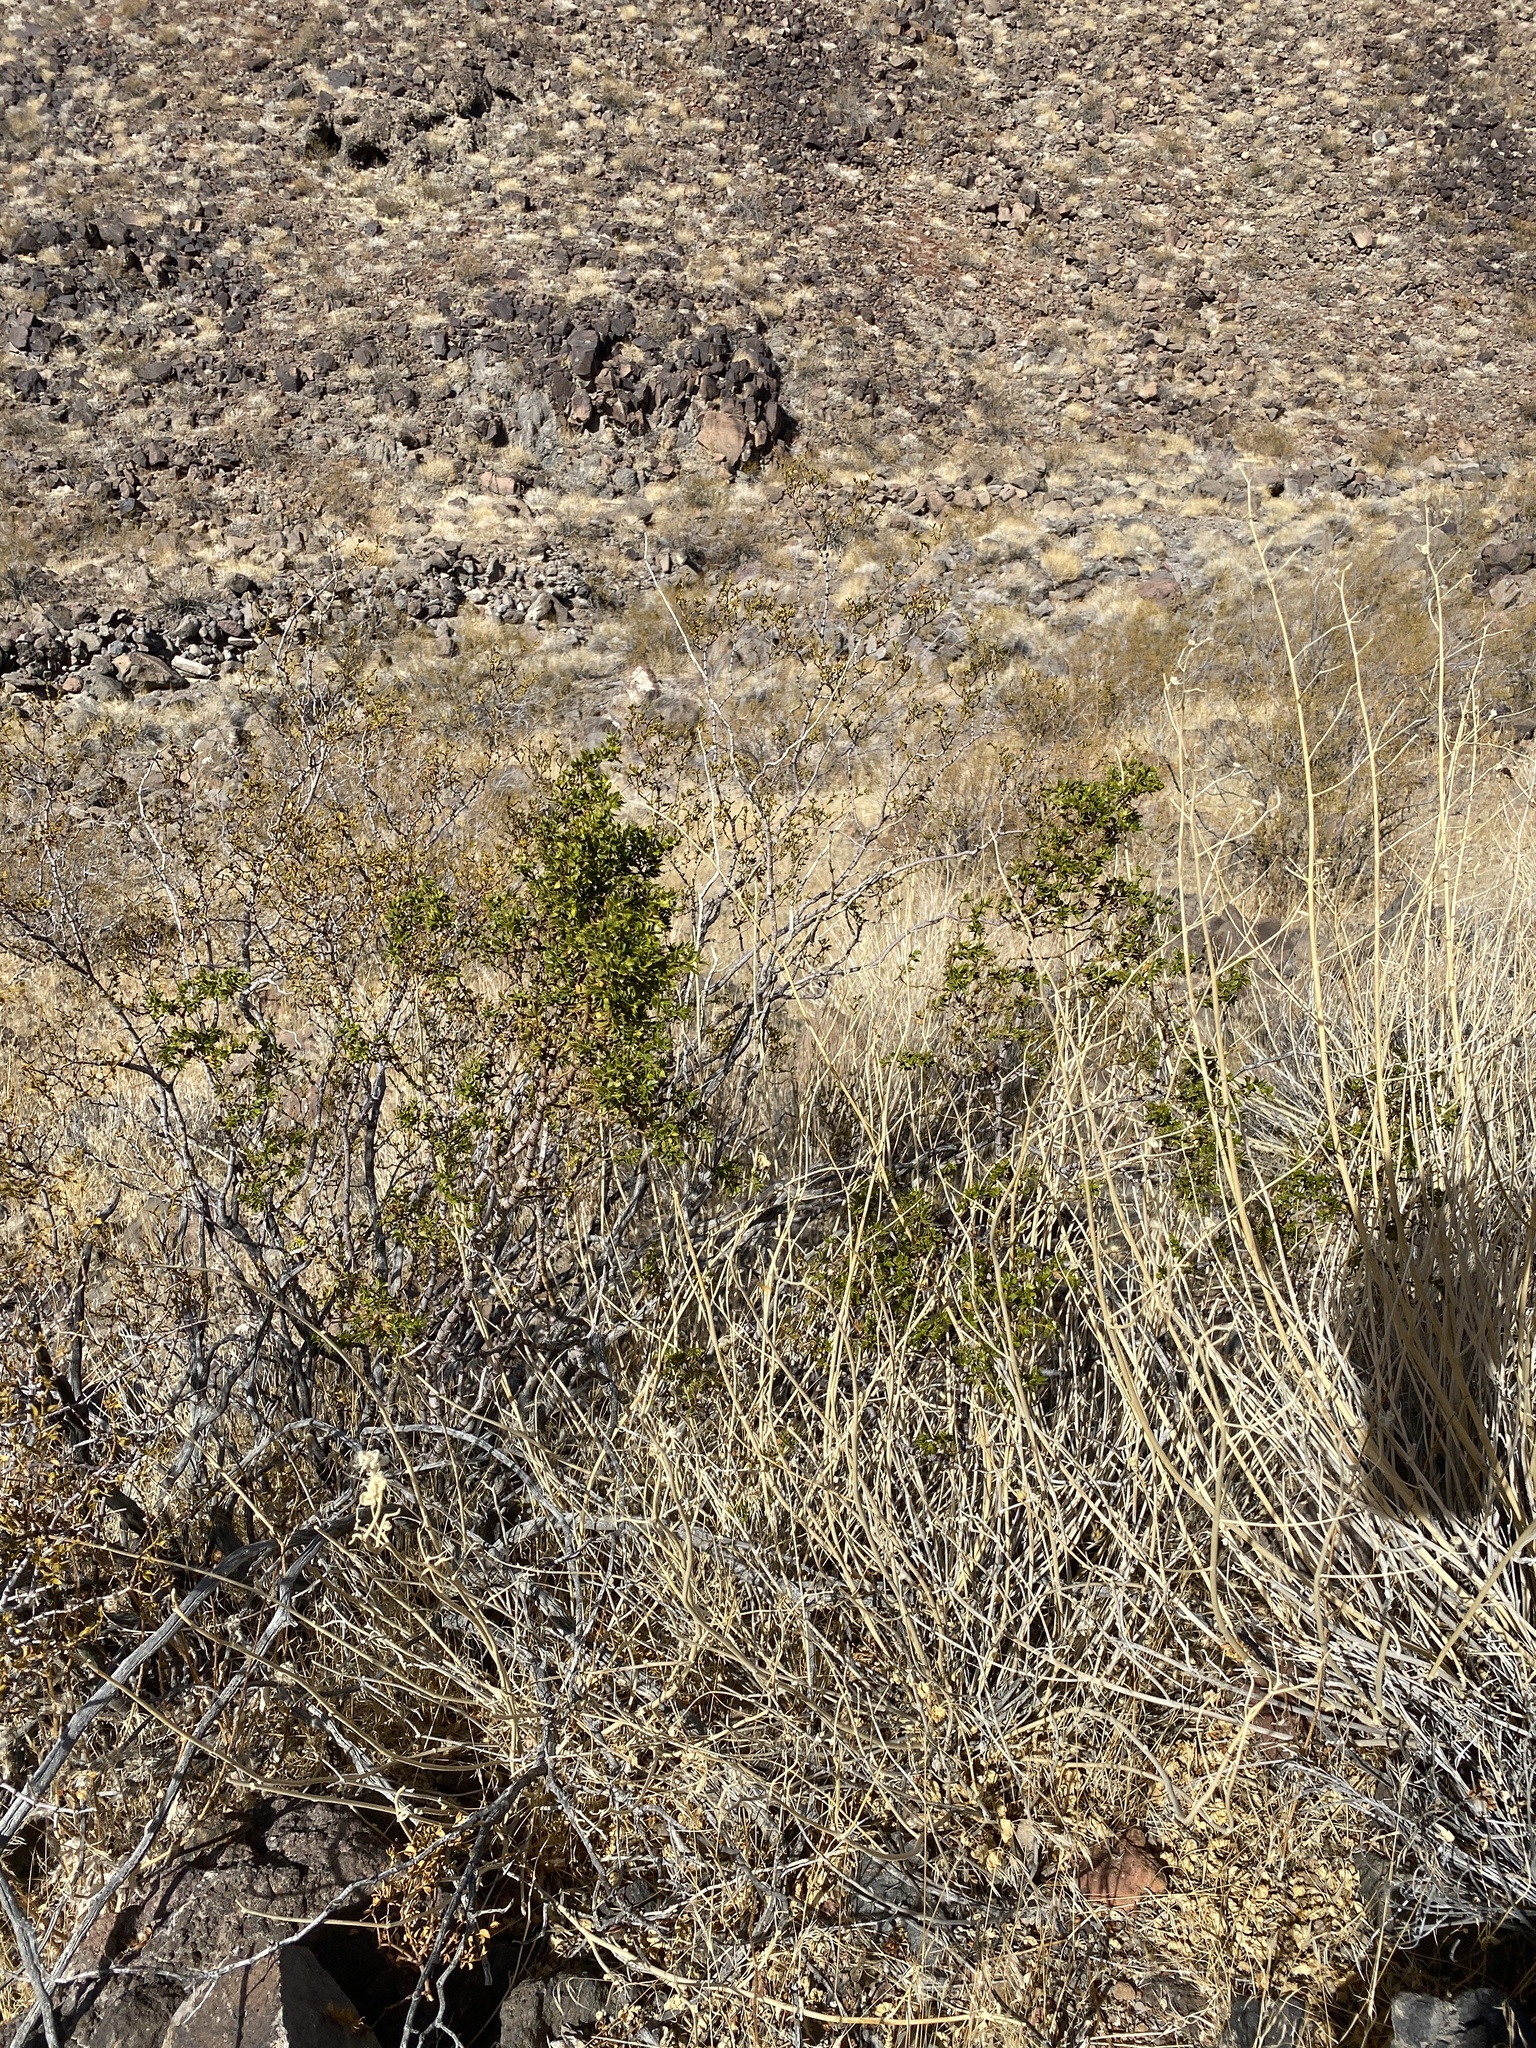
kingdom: Plantae
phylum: Tracheophyta
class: Magnoliopsida
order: Zygophyllales
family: Zygophyllaceae
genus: Larrea
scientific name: Larrea tridentata
